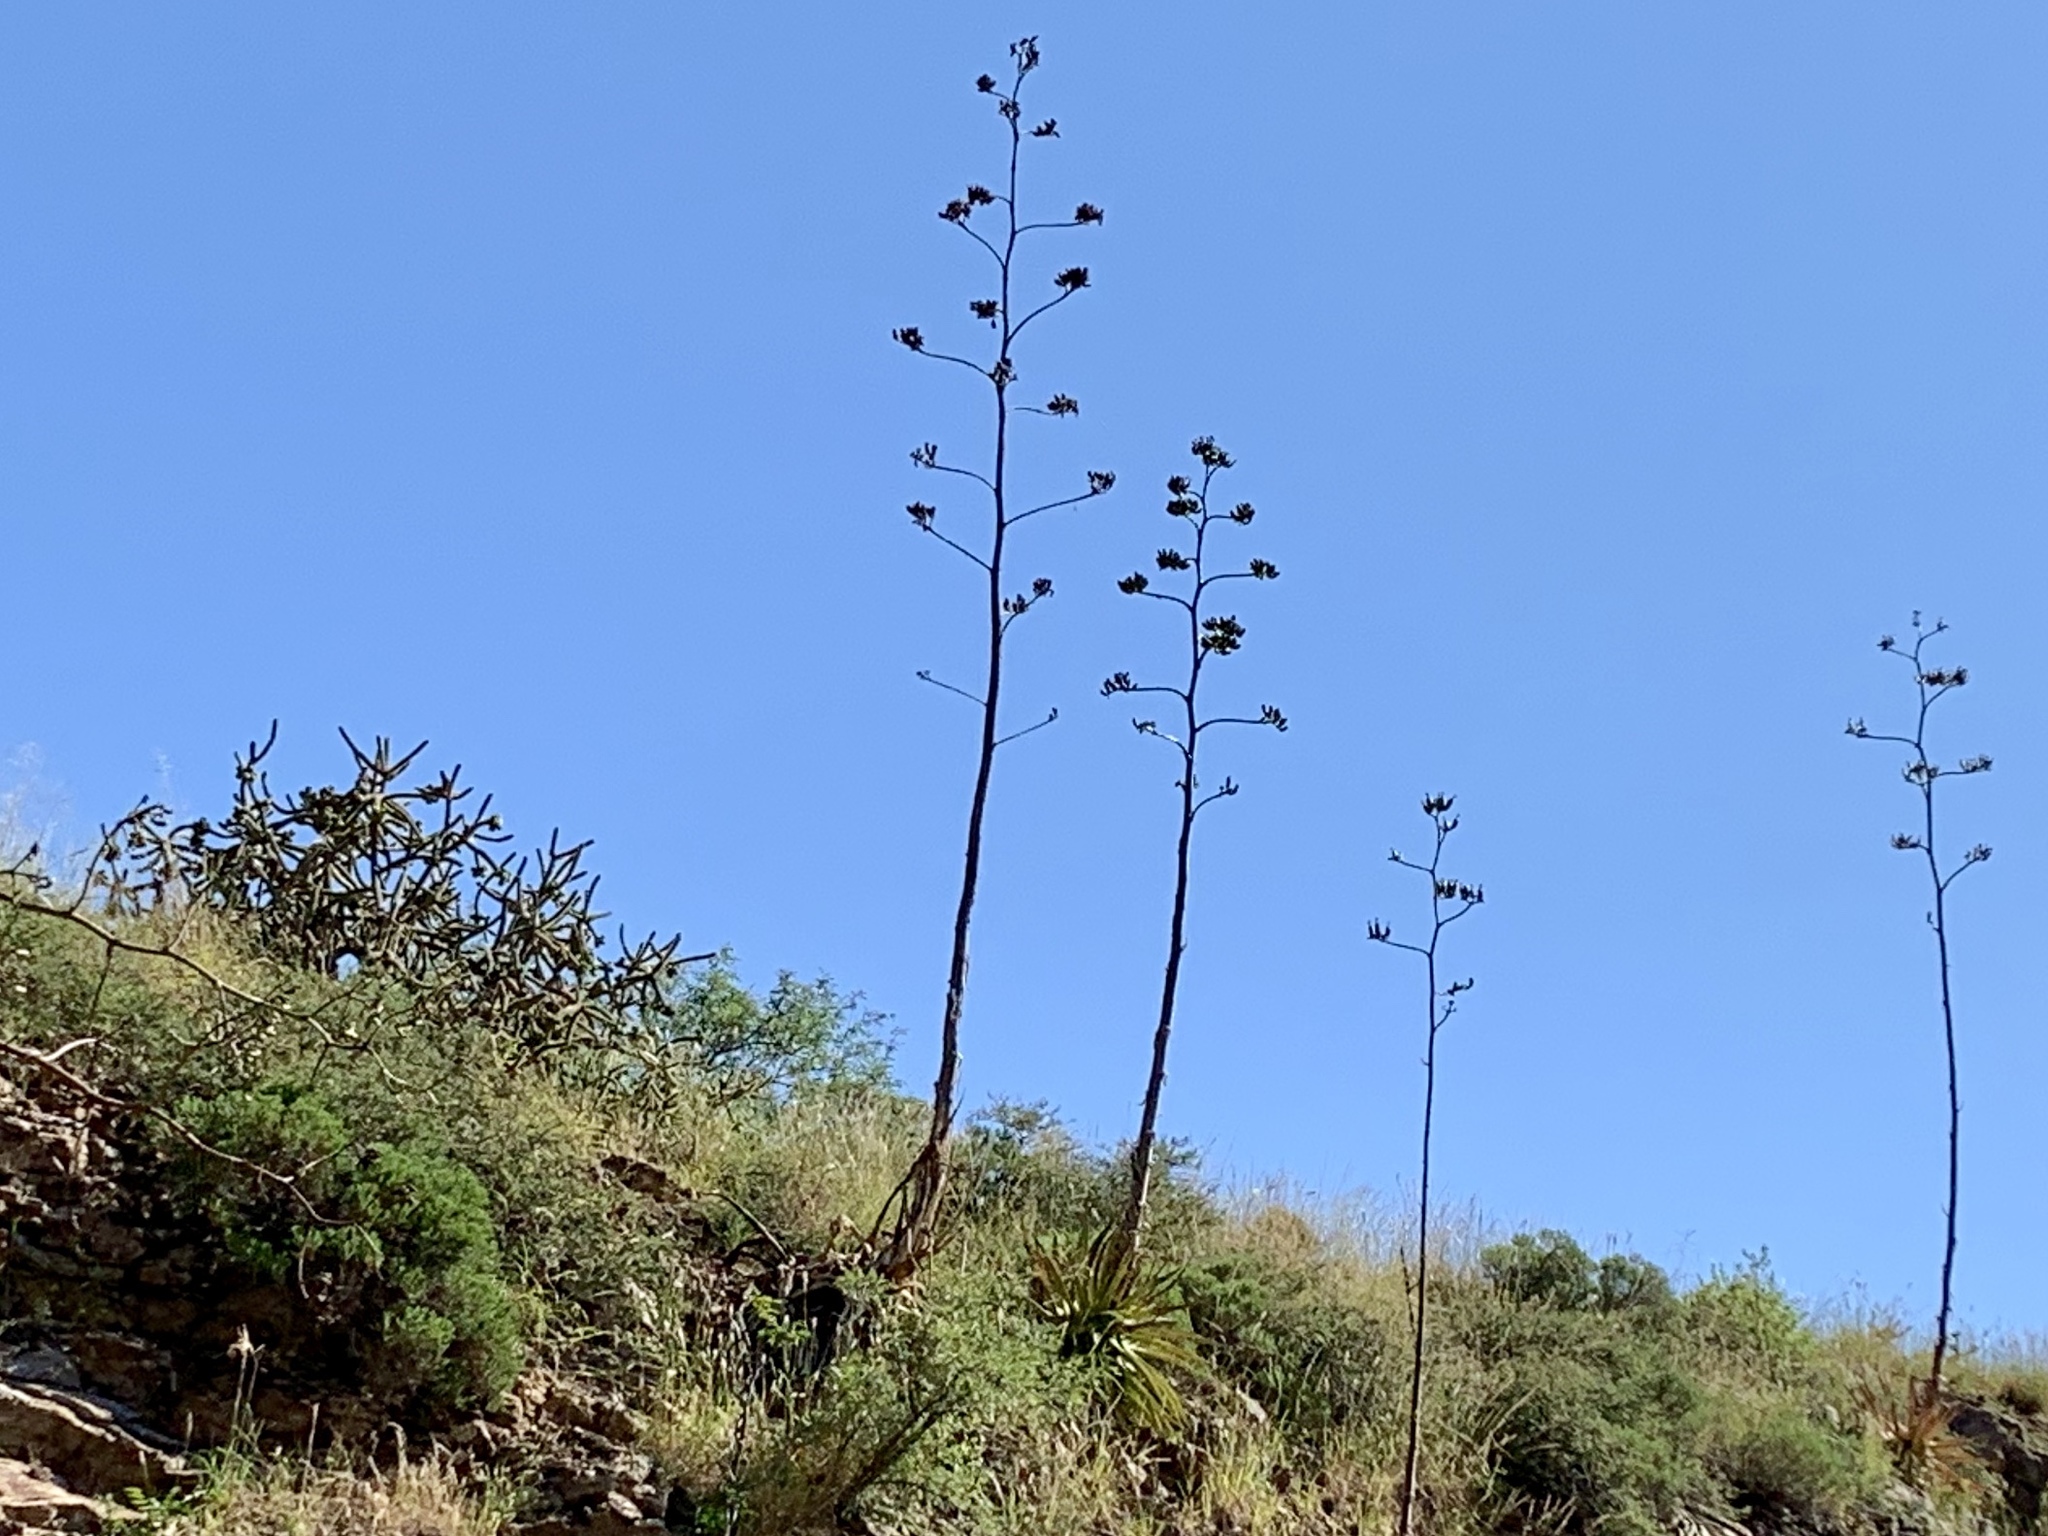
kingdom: Plantae
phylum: Tracheophyta
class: Liliopsida
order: Asparagales
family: Asparagaceae
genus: Agave
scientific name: Agave palmeri
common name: Palmer agave
